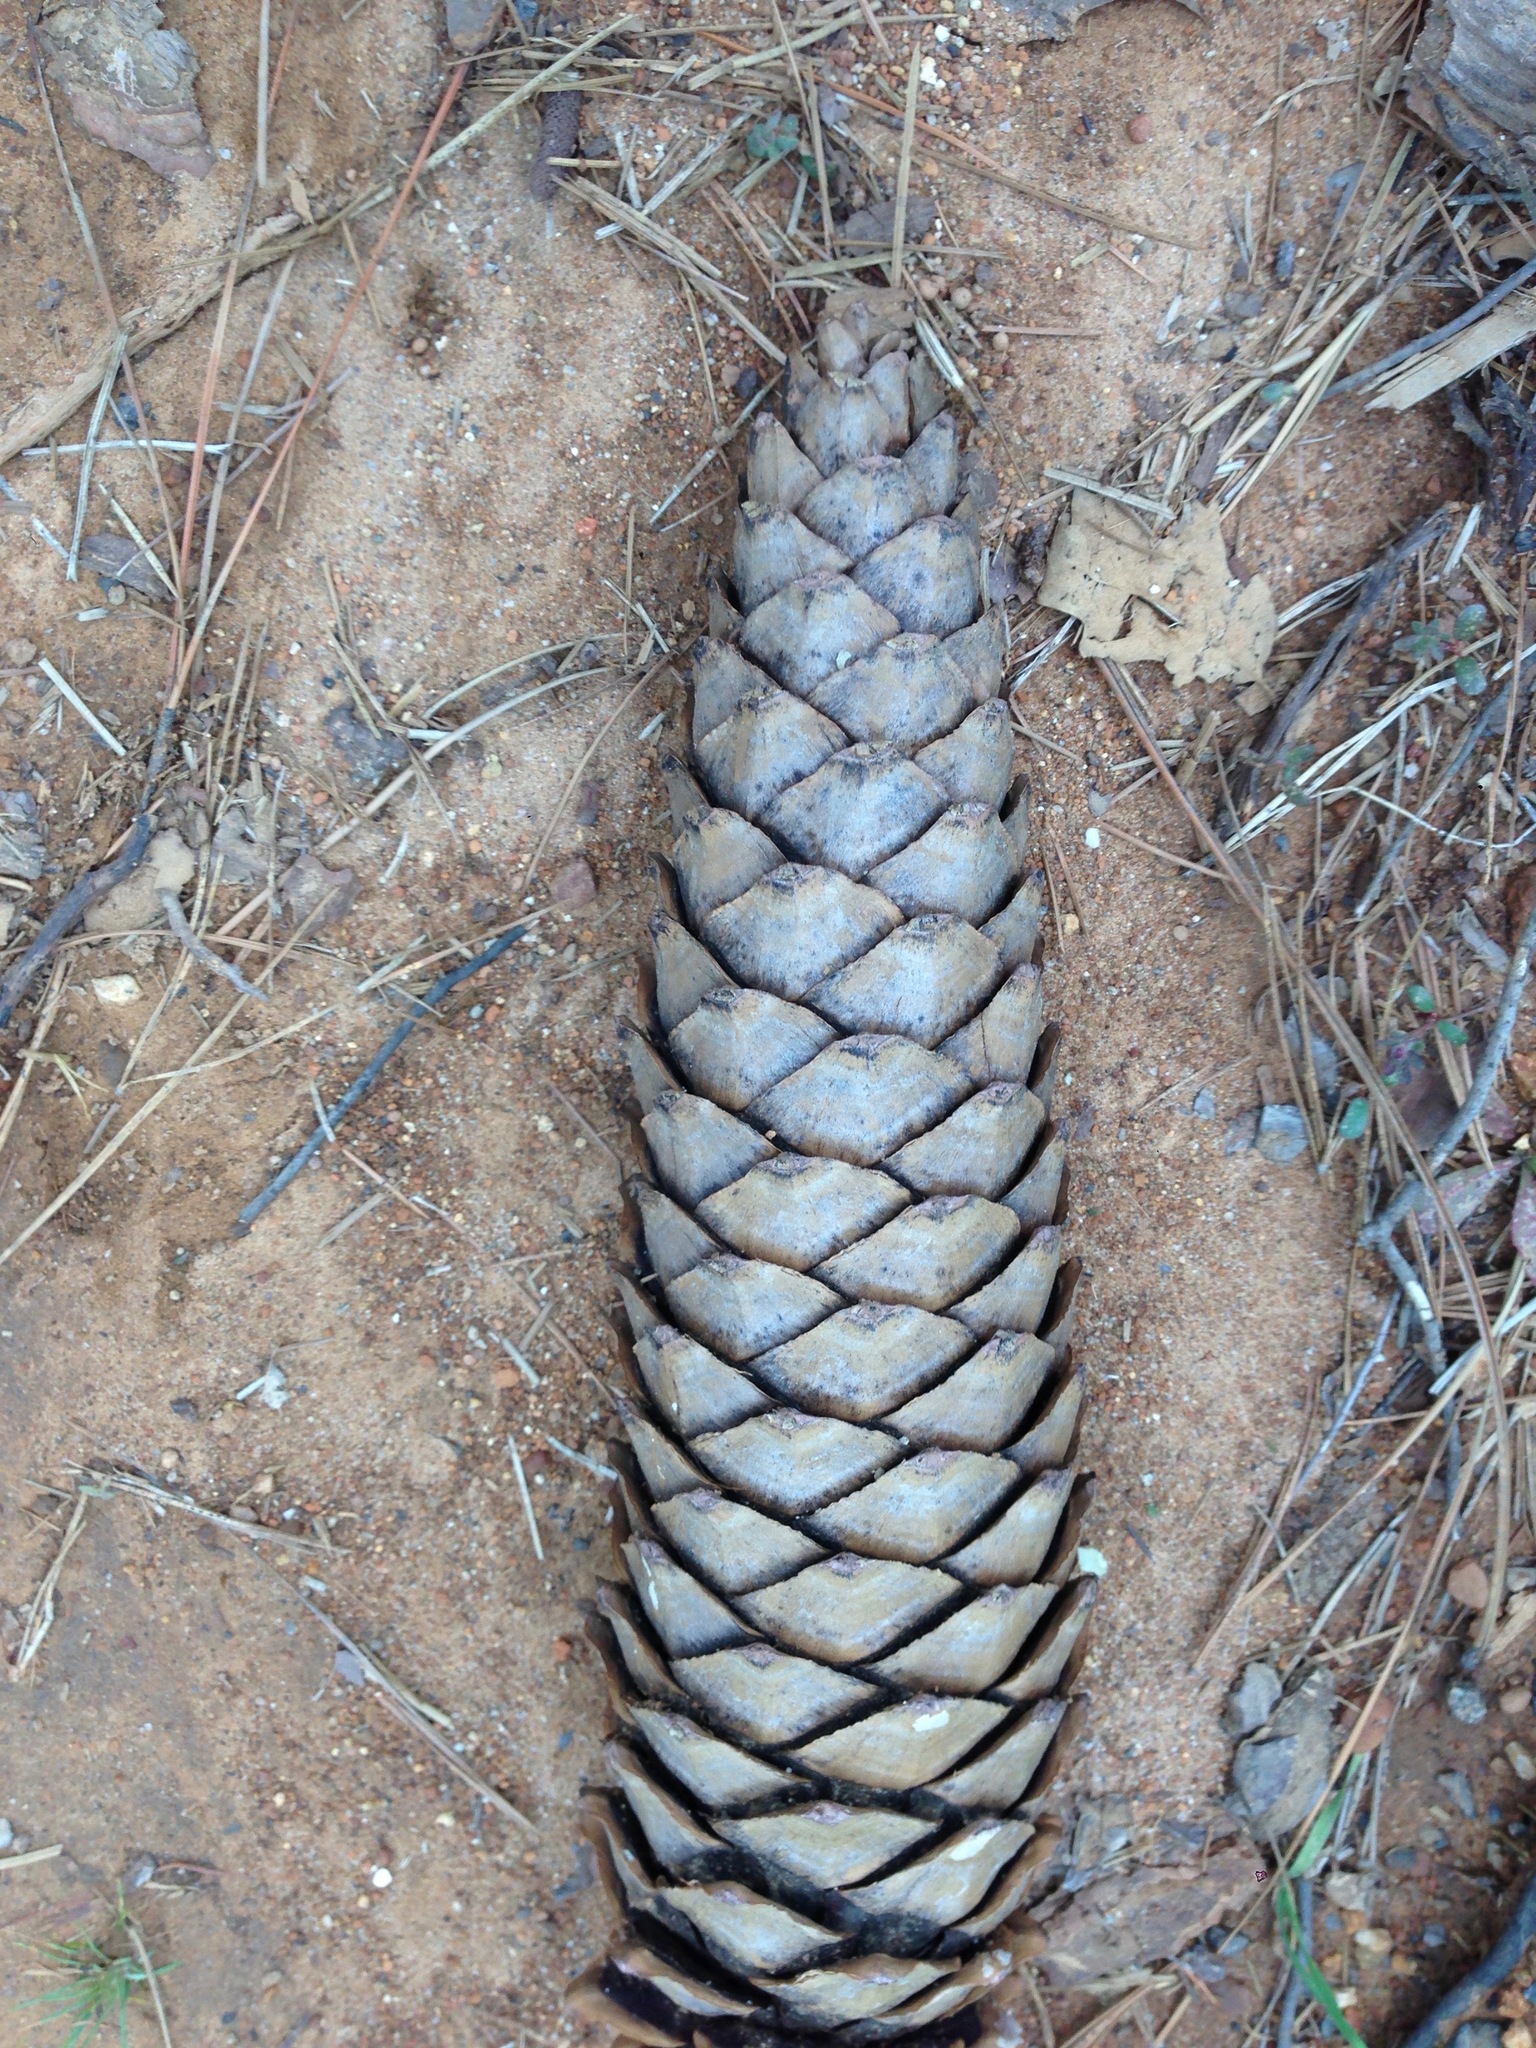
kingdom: Plantae
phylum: Tracheophyta
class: Pinopsida
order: Pinales
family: Pinaceae
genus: Pinus
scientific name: Pinus lambertiana
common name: Sugar pine
